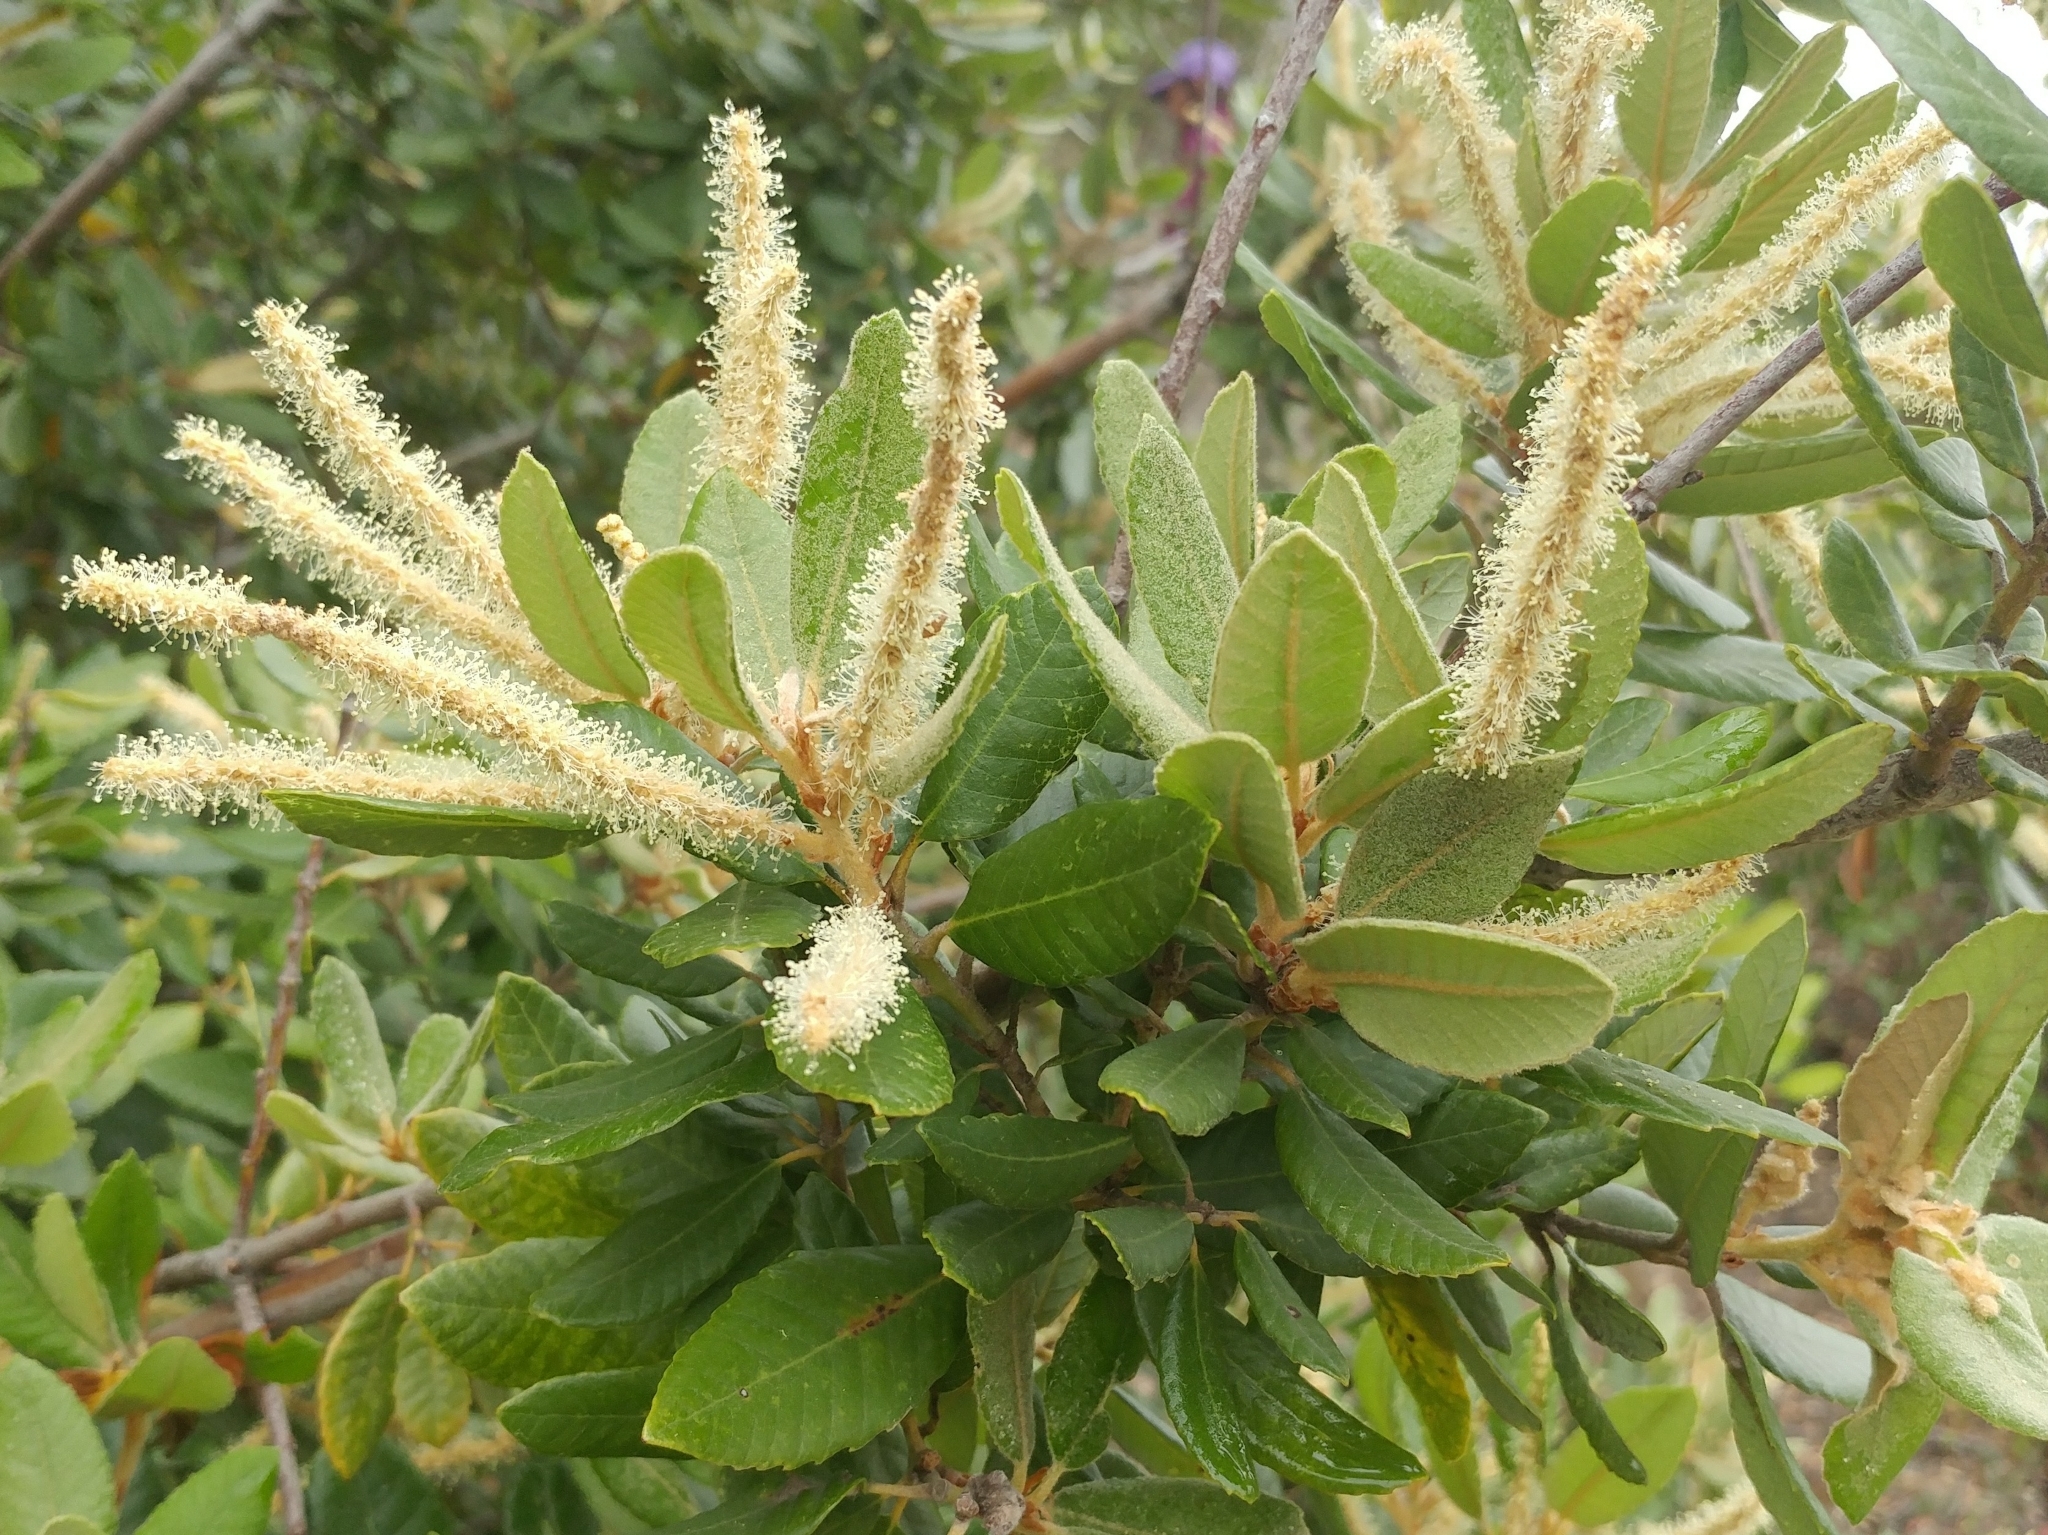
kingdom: Plantae
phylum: Tracheophyta
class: Magnoliopsida
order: Fagales
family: Fagaceae
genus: Notholithocarpus
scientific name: Notholithocarpus densiflorus
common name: Tan bark oak
